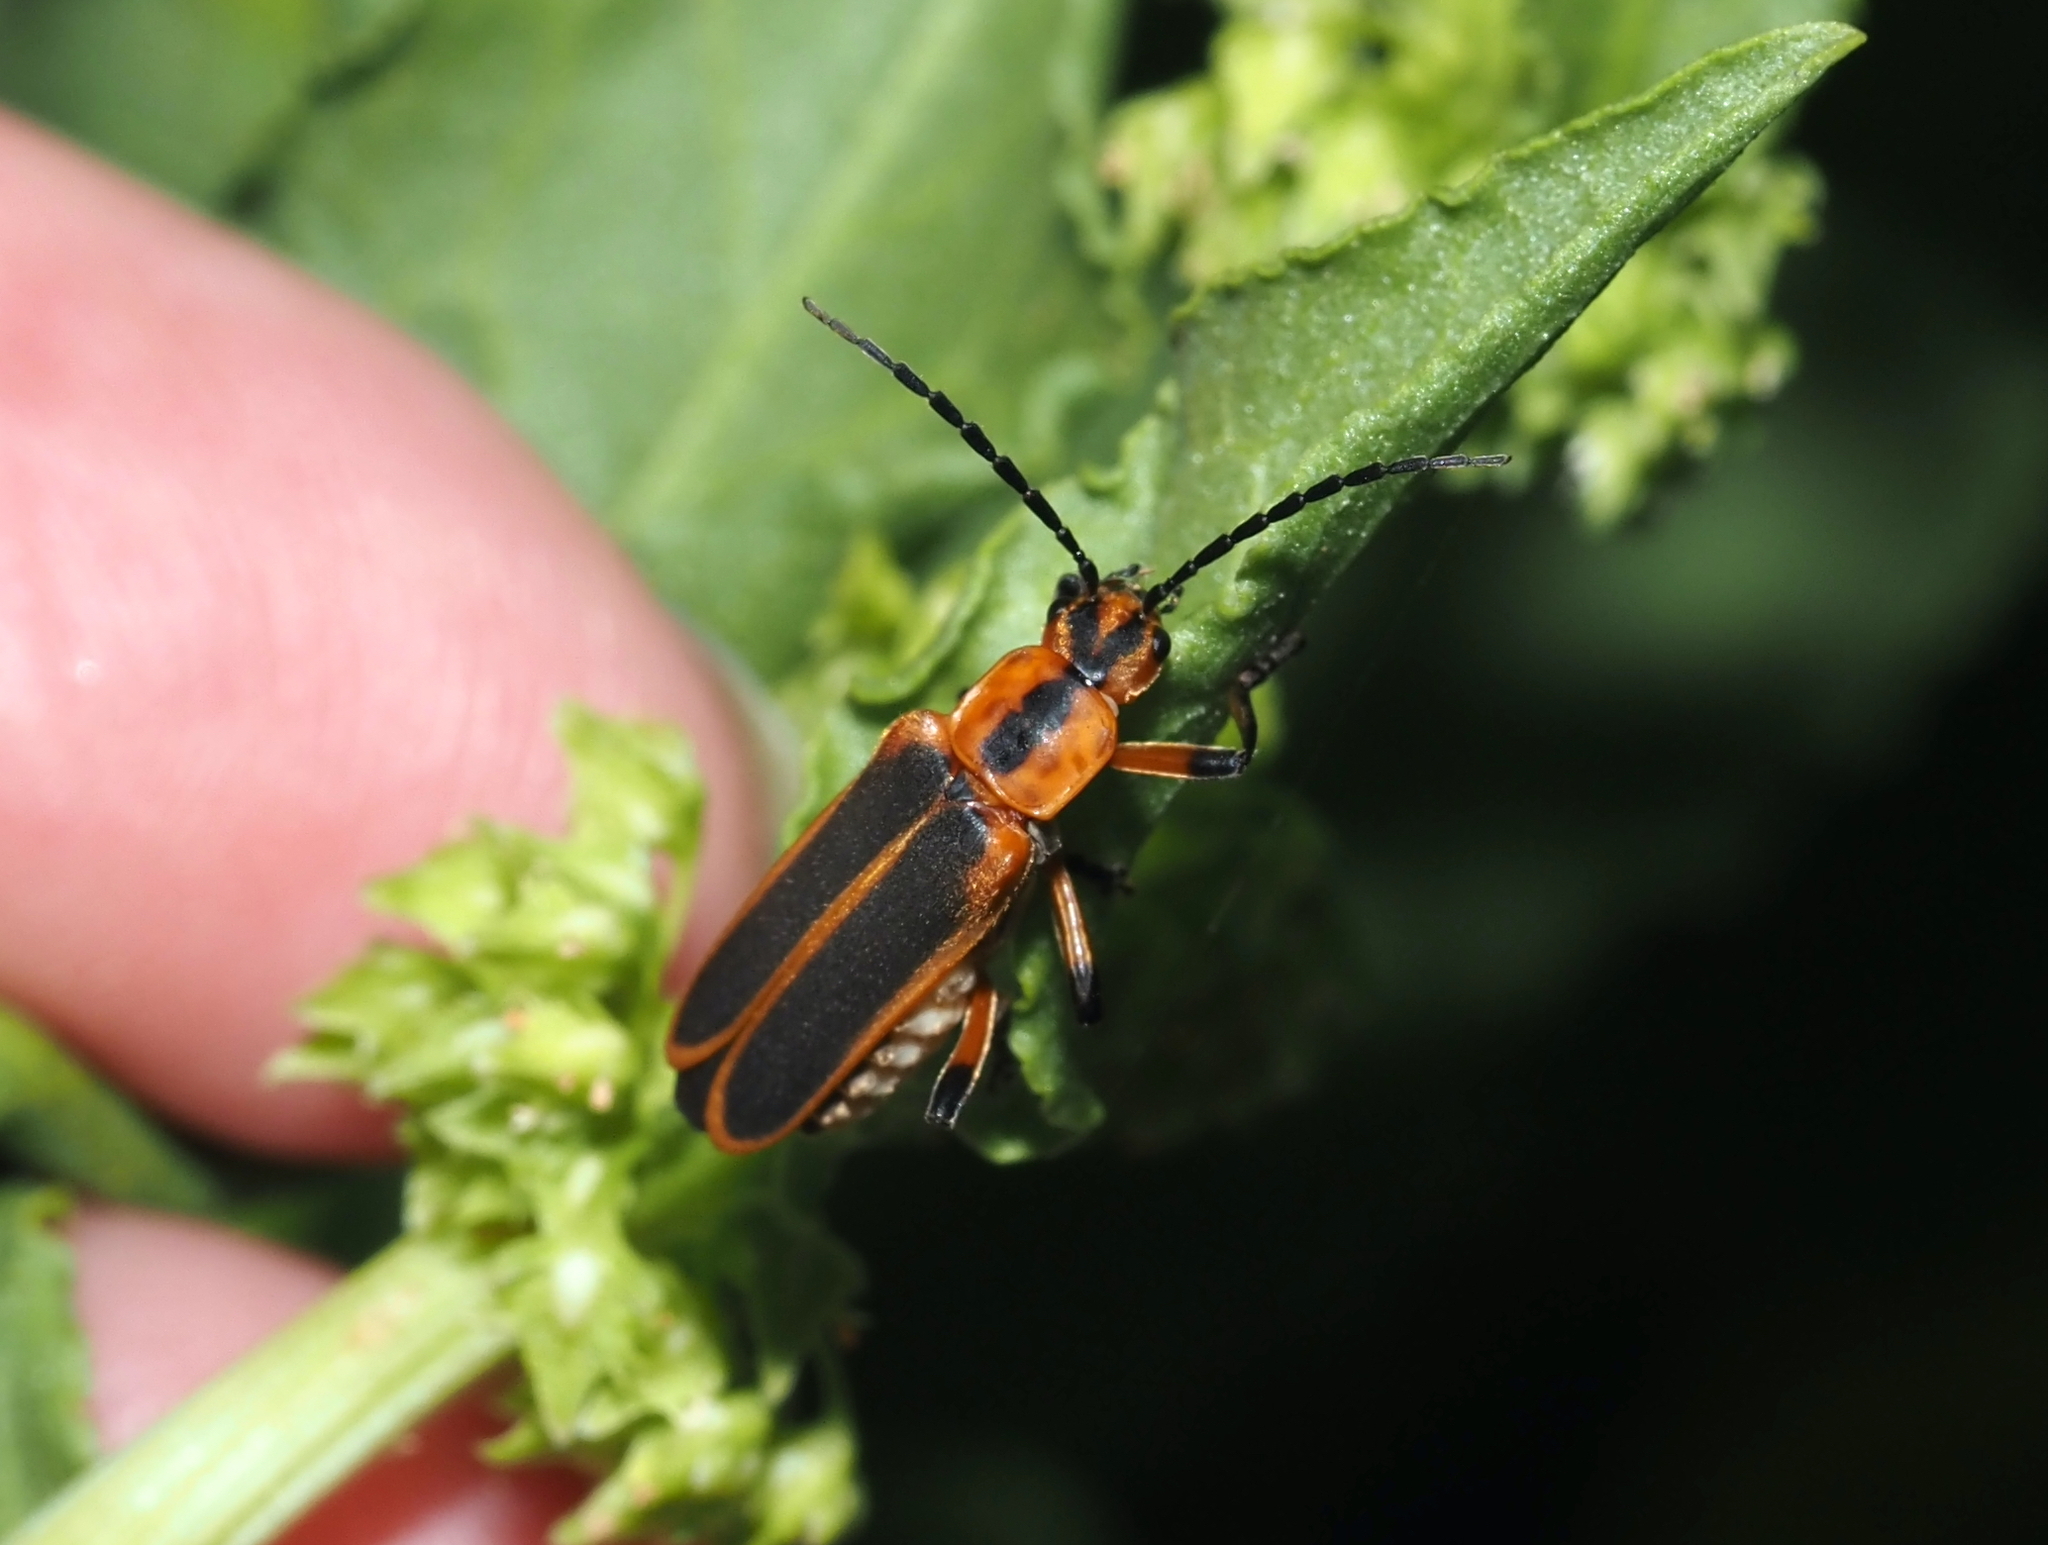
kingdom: Animalia
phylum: Arthropoda
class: Insecta
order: Coleoptera
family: Cantharidae
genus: Chauliognathus
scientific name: Chauliognathus marginatus
